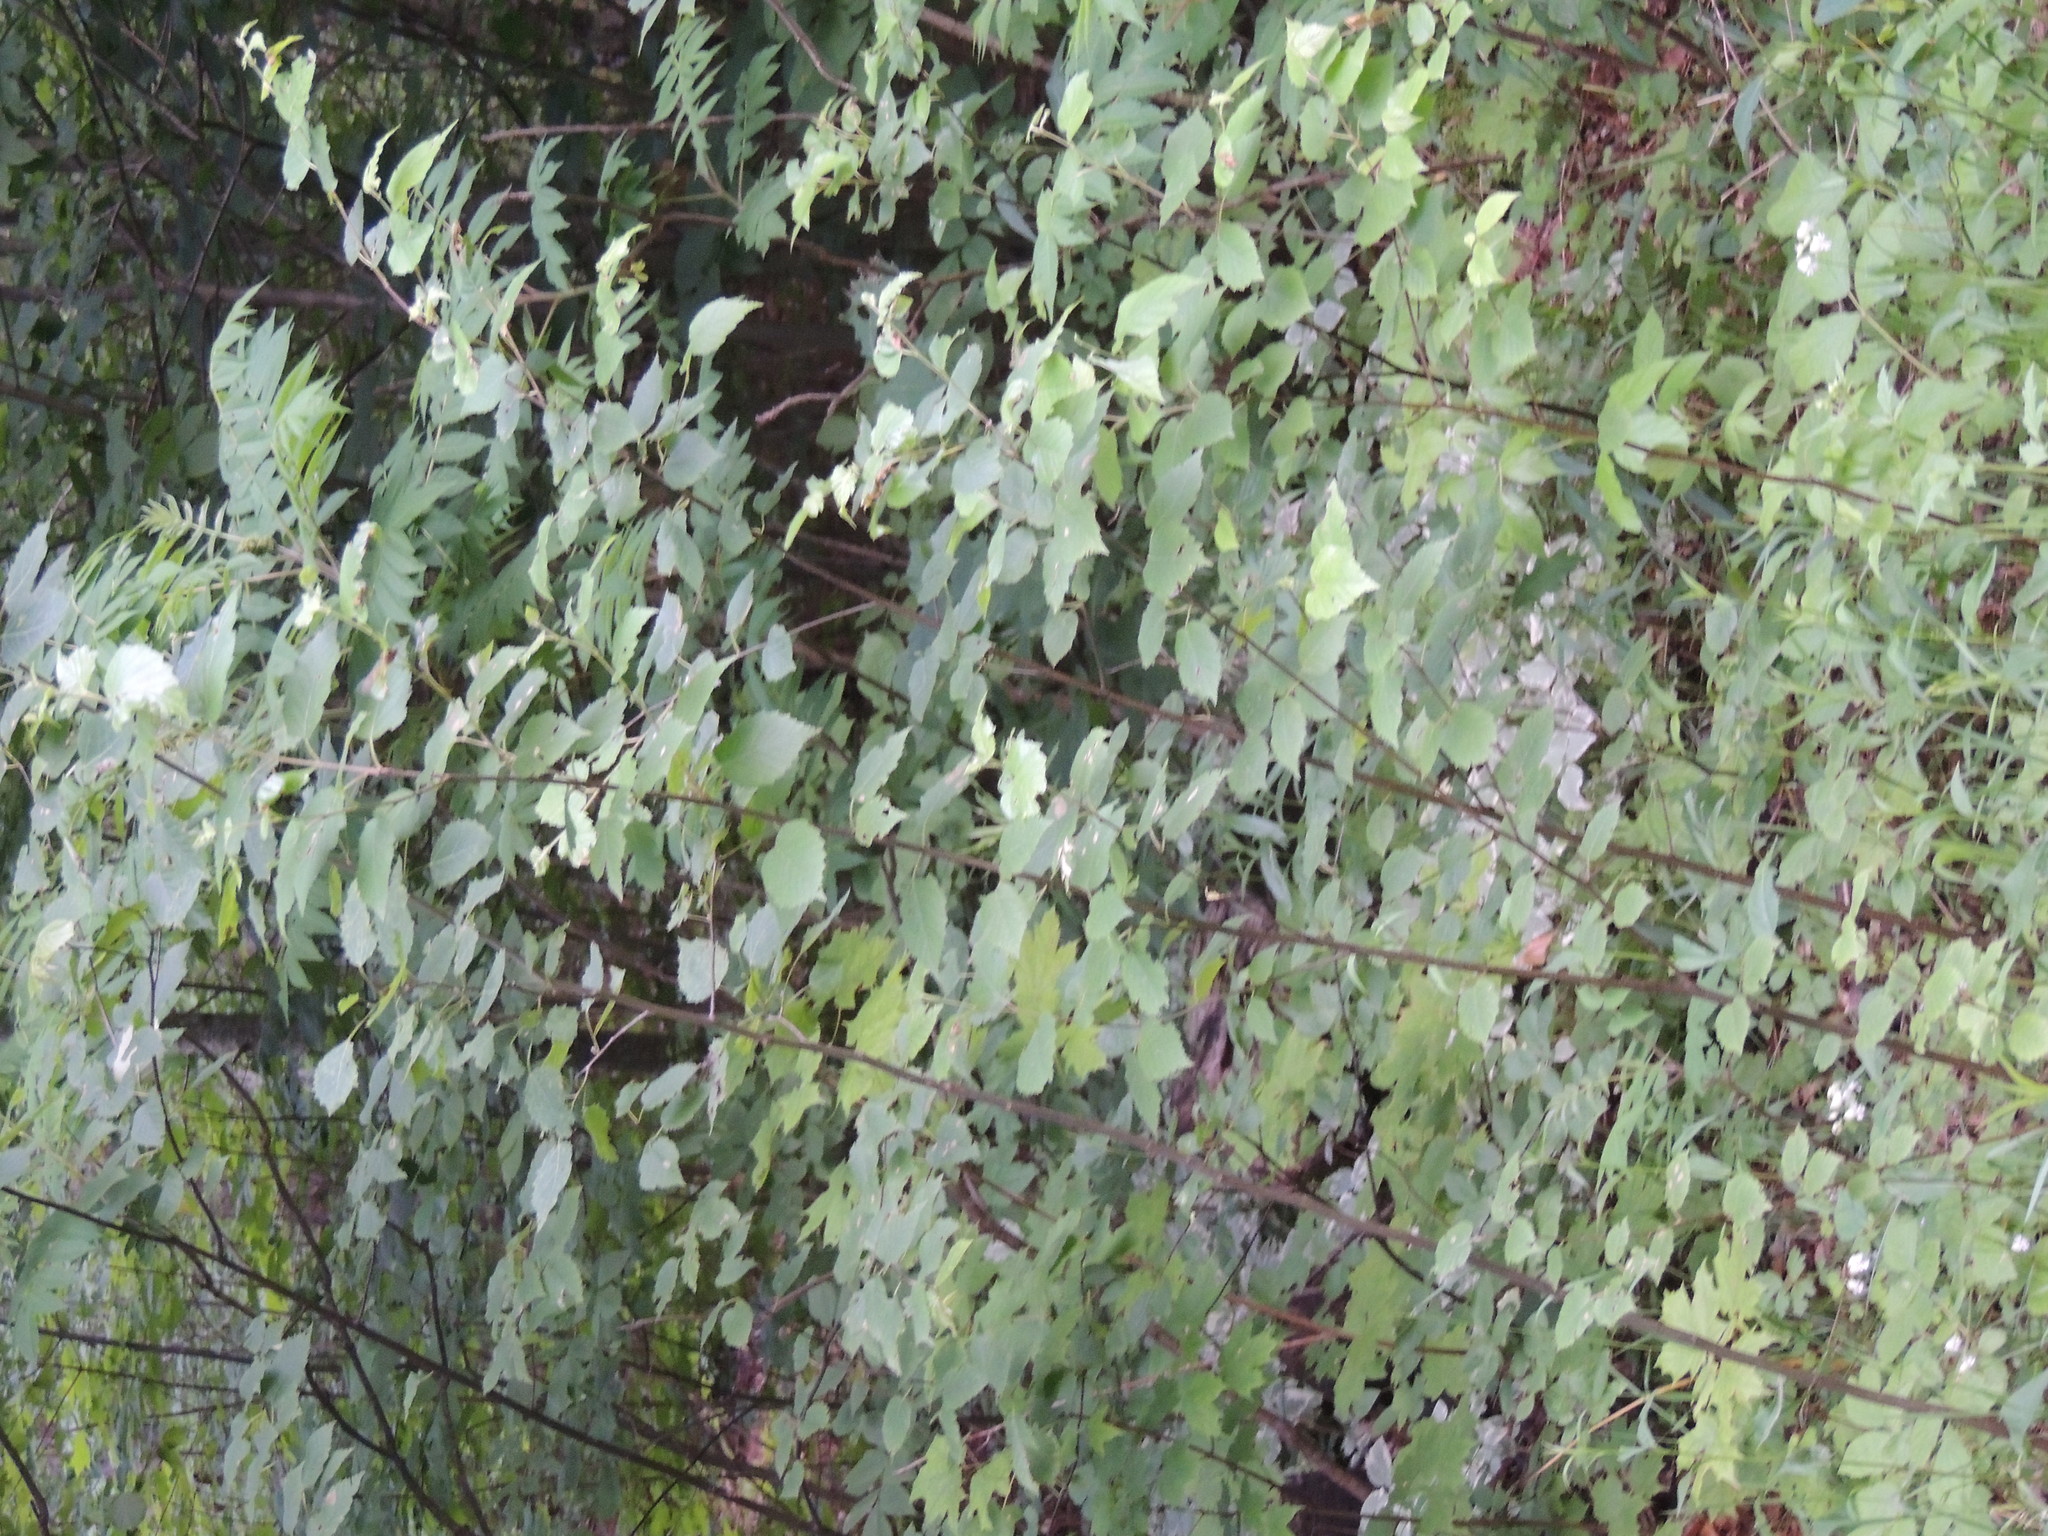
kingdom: Plantae
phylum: Tracheophyta
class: Magnoliopsida
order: Malpighiales
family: Salicaceae
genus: Populus
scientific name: Populus grandidentata
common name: Bigtooth aspen
